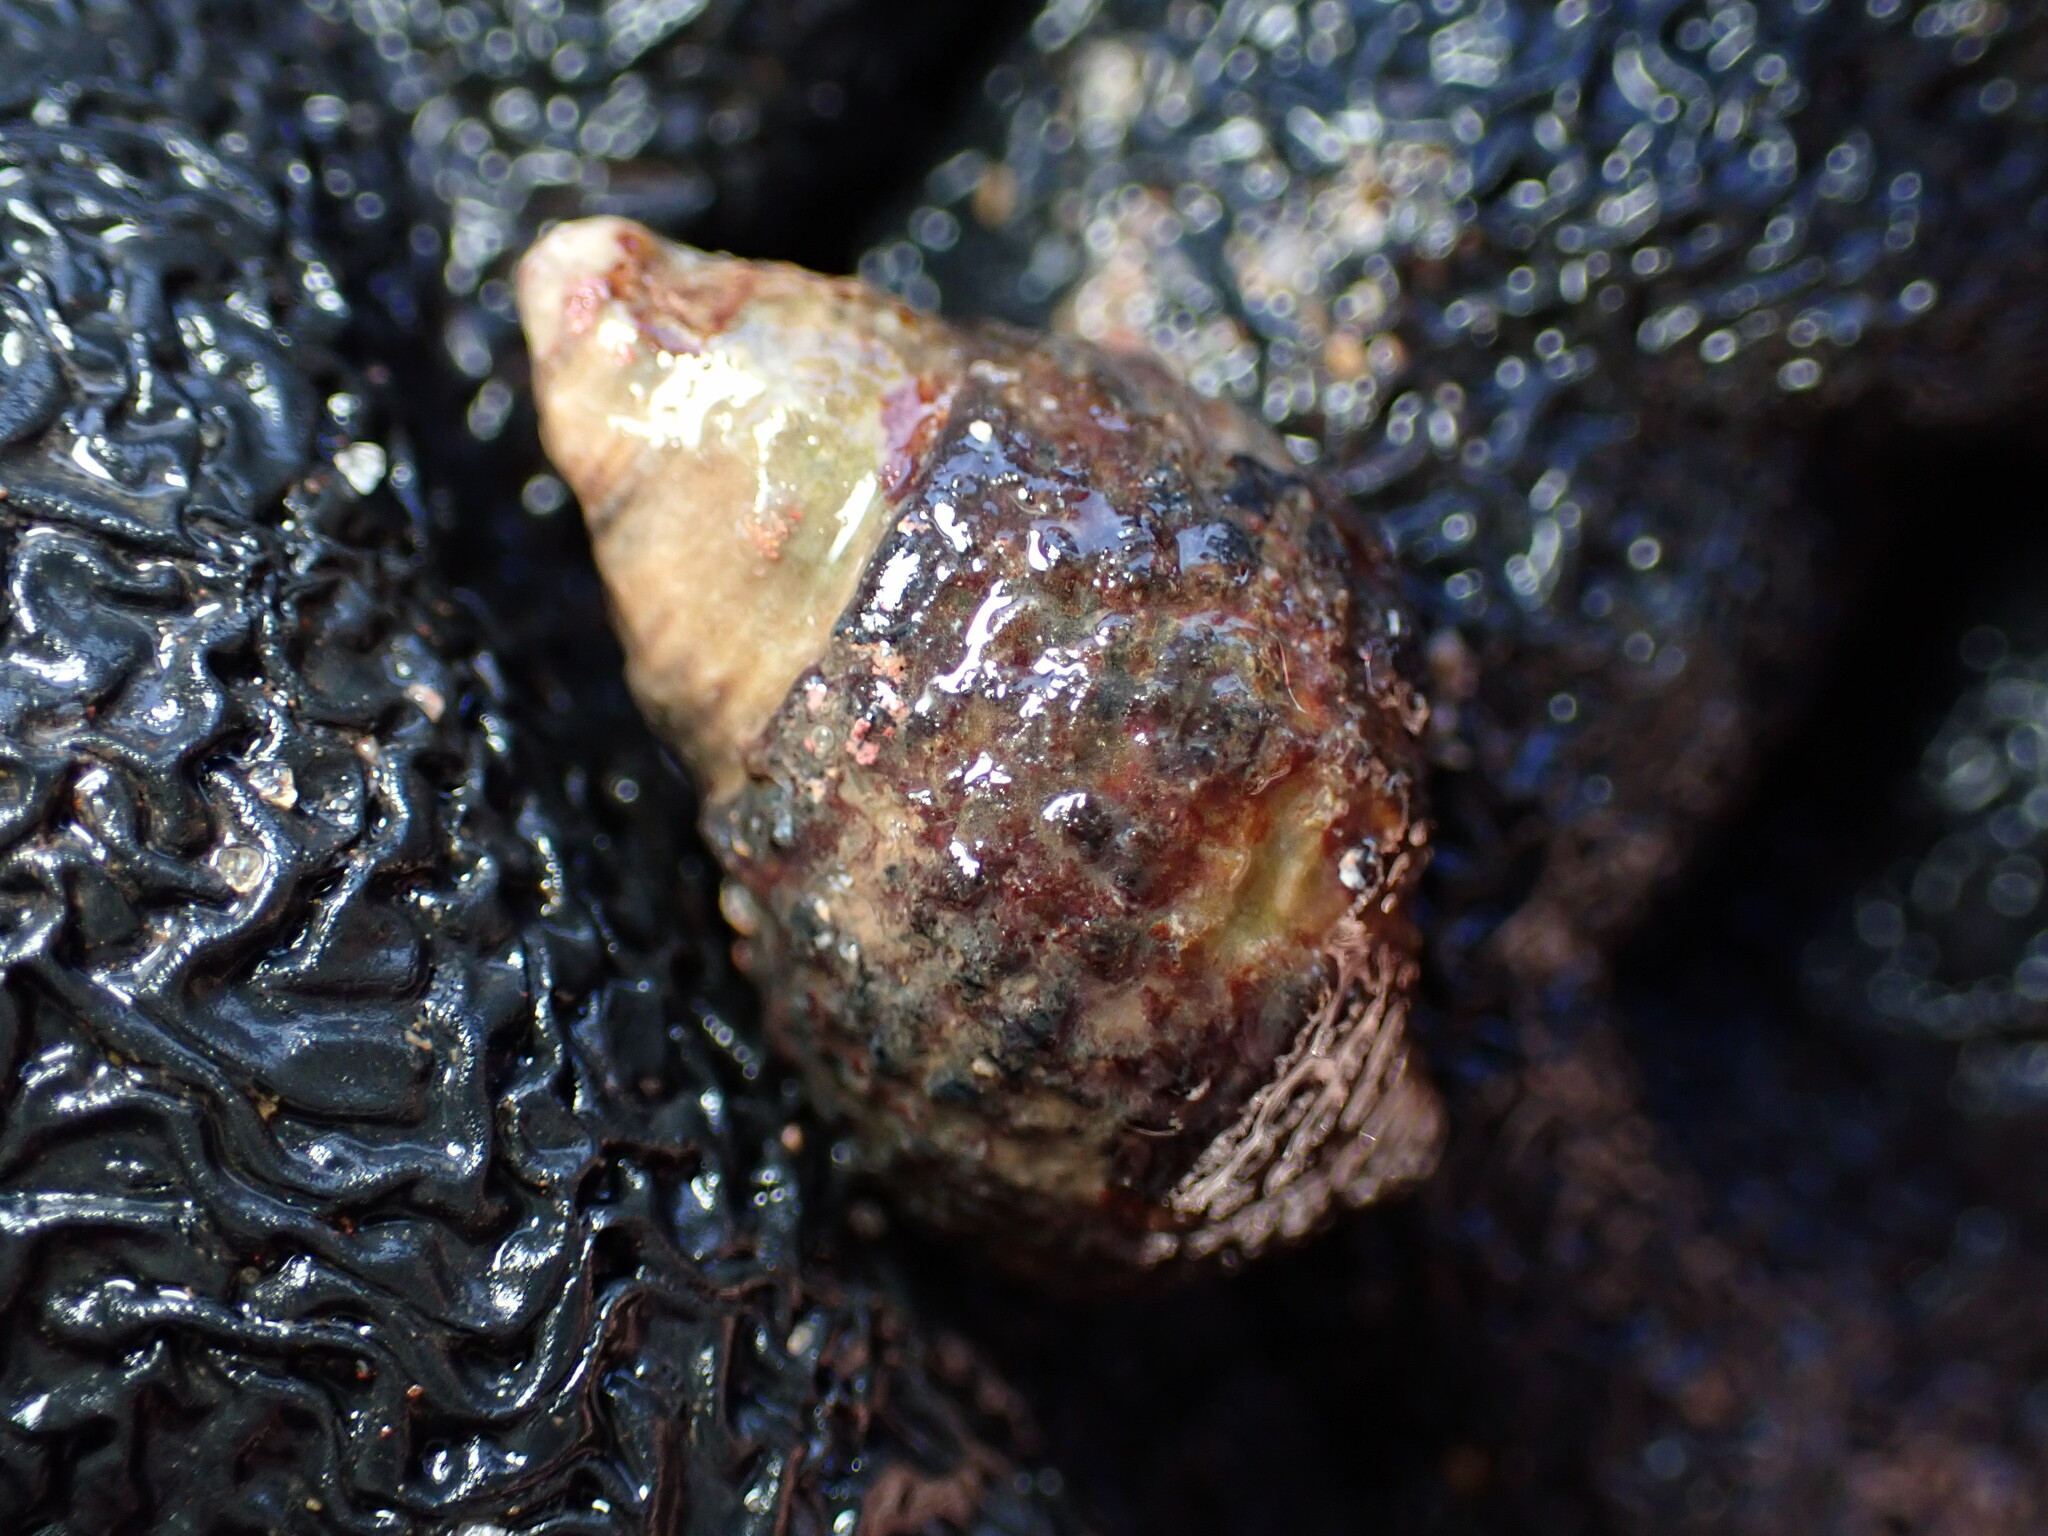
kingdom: Animalia
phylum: Mollusca
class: Gastropoda
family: Planaxidae
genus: Planaxis
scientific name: Planaxis sulcatus
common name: Furrowed planaxis
